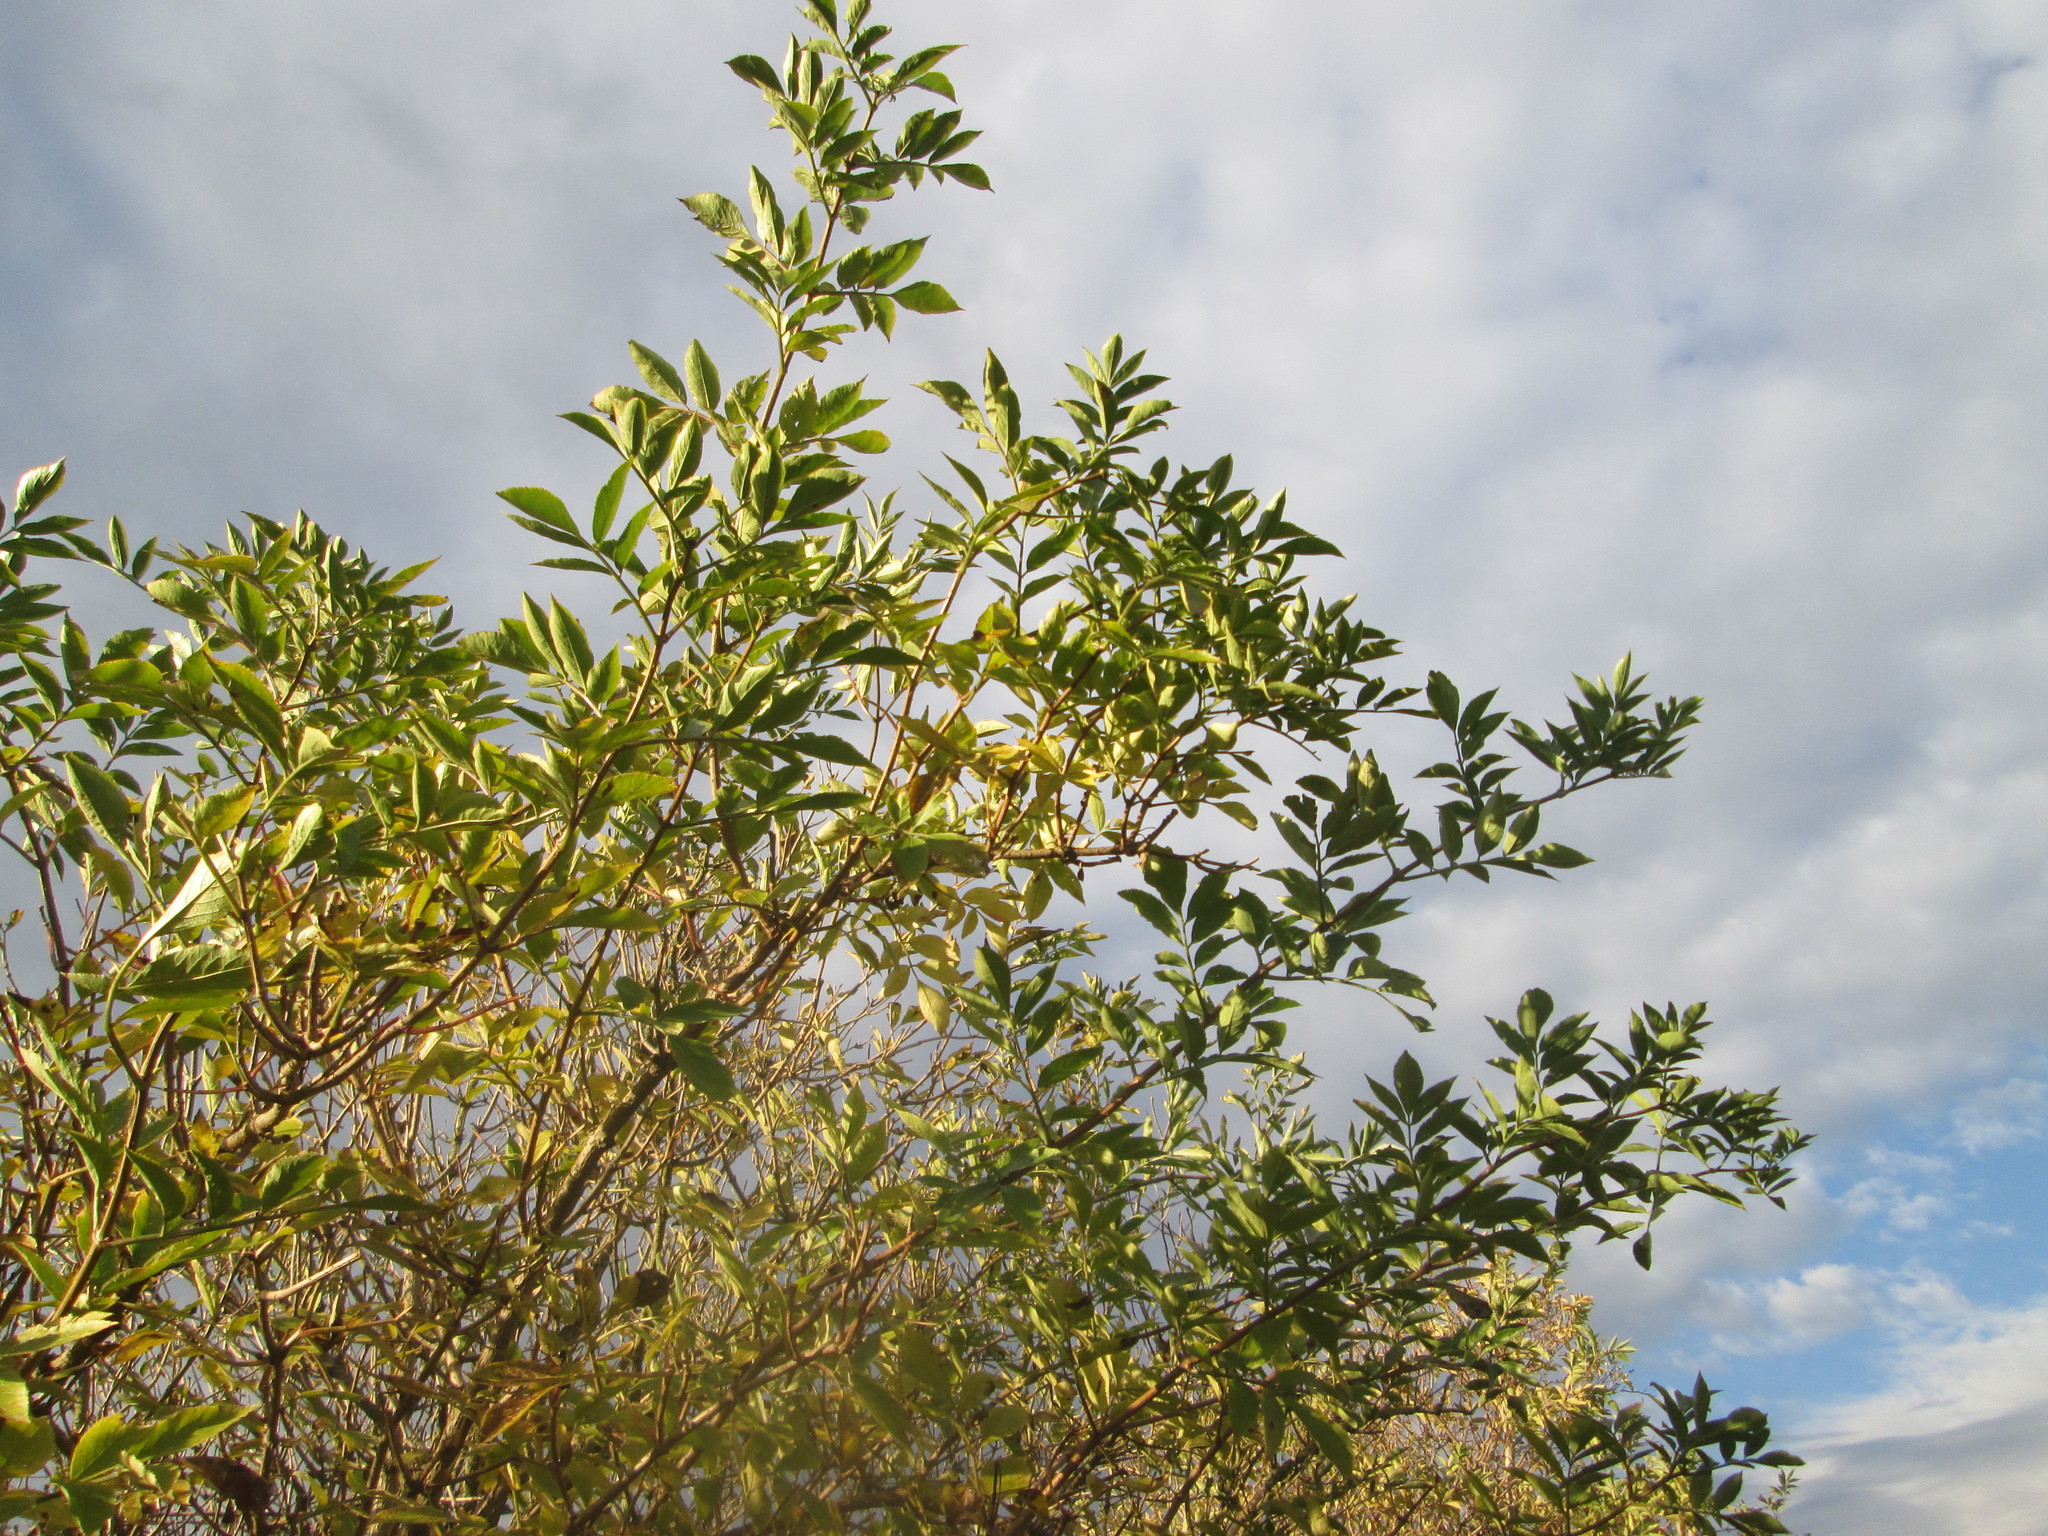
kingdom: Plantae
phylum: Tracheophyta
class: Magnoliopsida
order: Dipsacales
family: Viburnaceae
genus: Sambucus
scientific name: Sambucus nigra
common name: Elder
